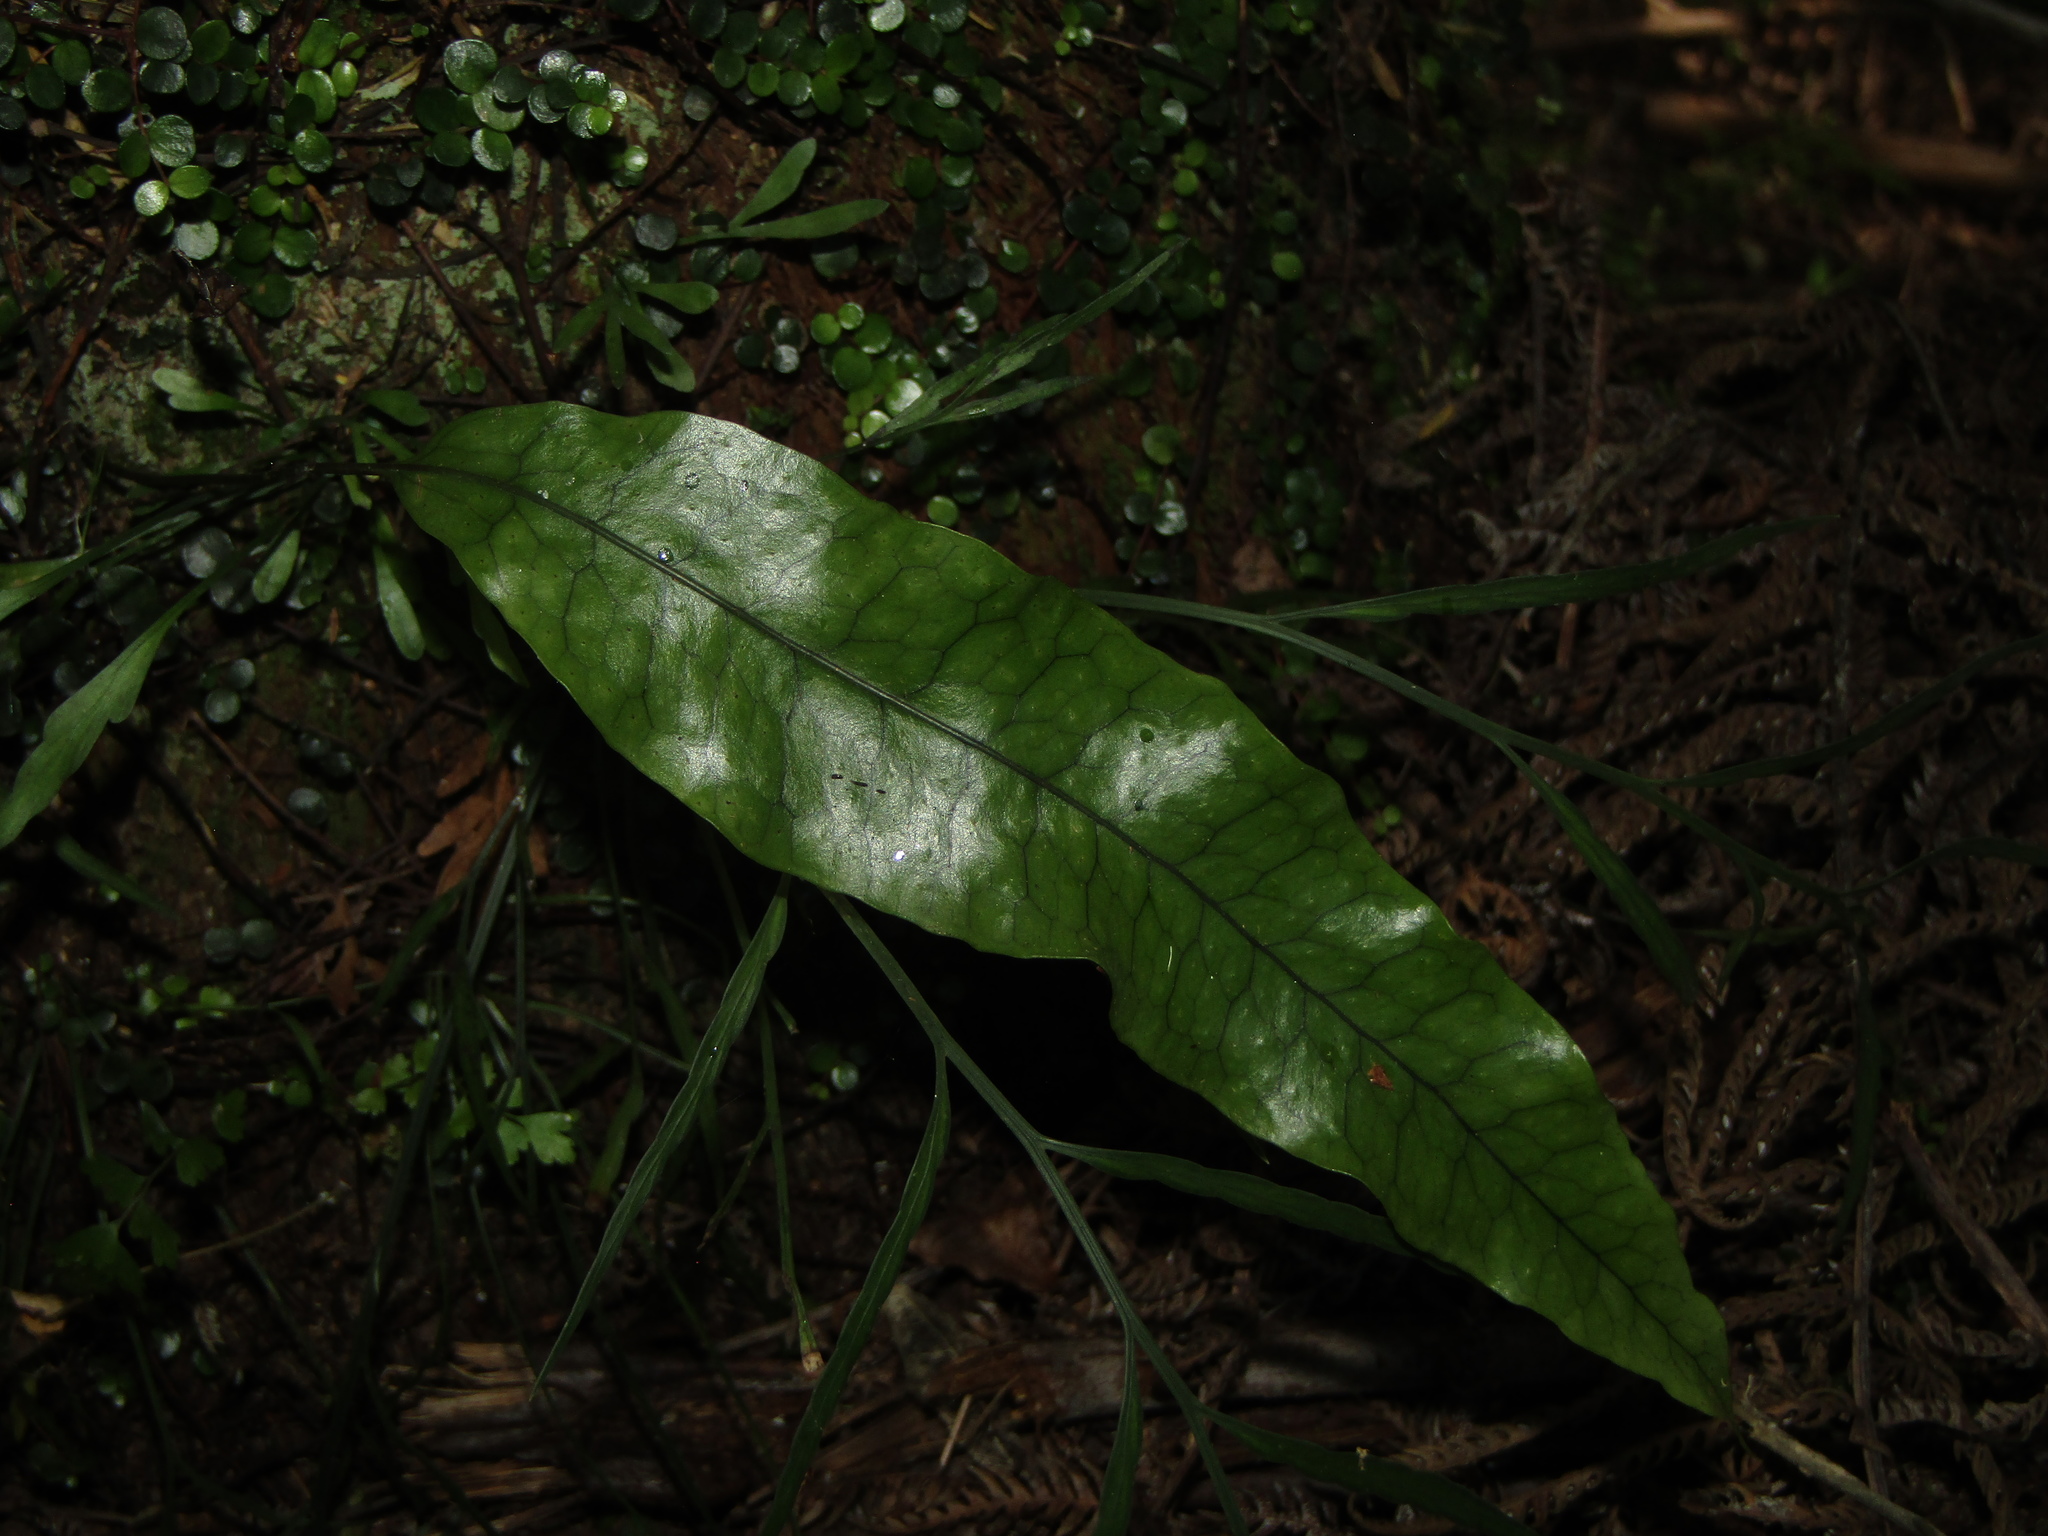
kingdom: Plantae
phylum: Tracheophyta
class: Polypodiopsida
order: Polypodiales
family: Polypodiaceae
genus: Lecanopteris
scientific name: Lecanopteris pustulata
